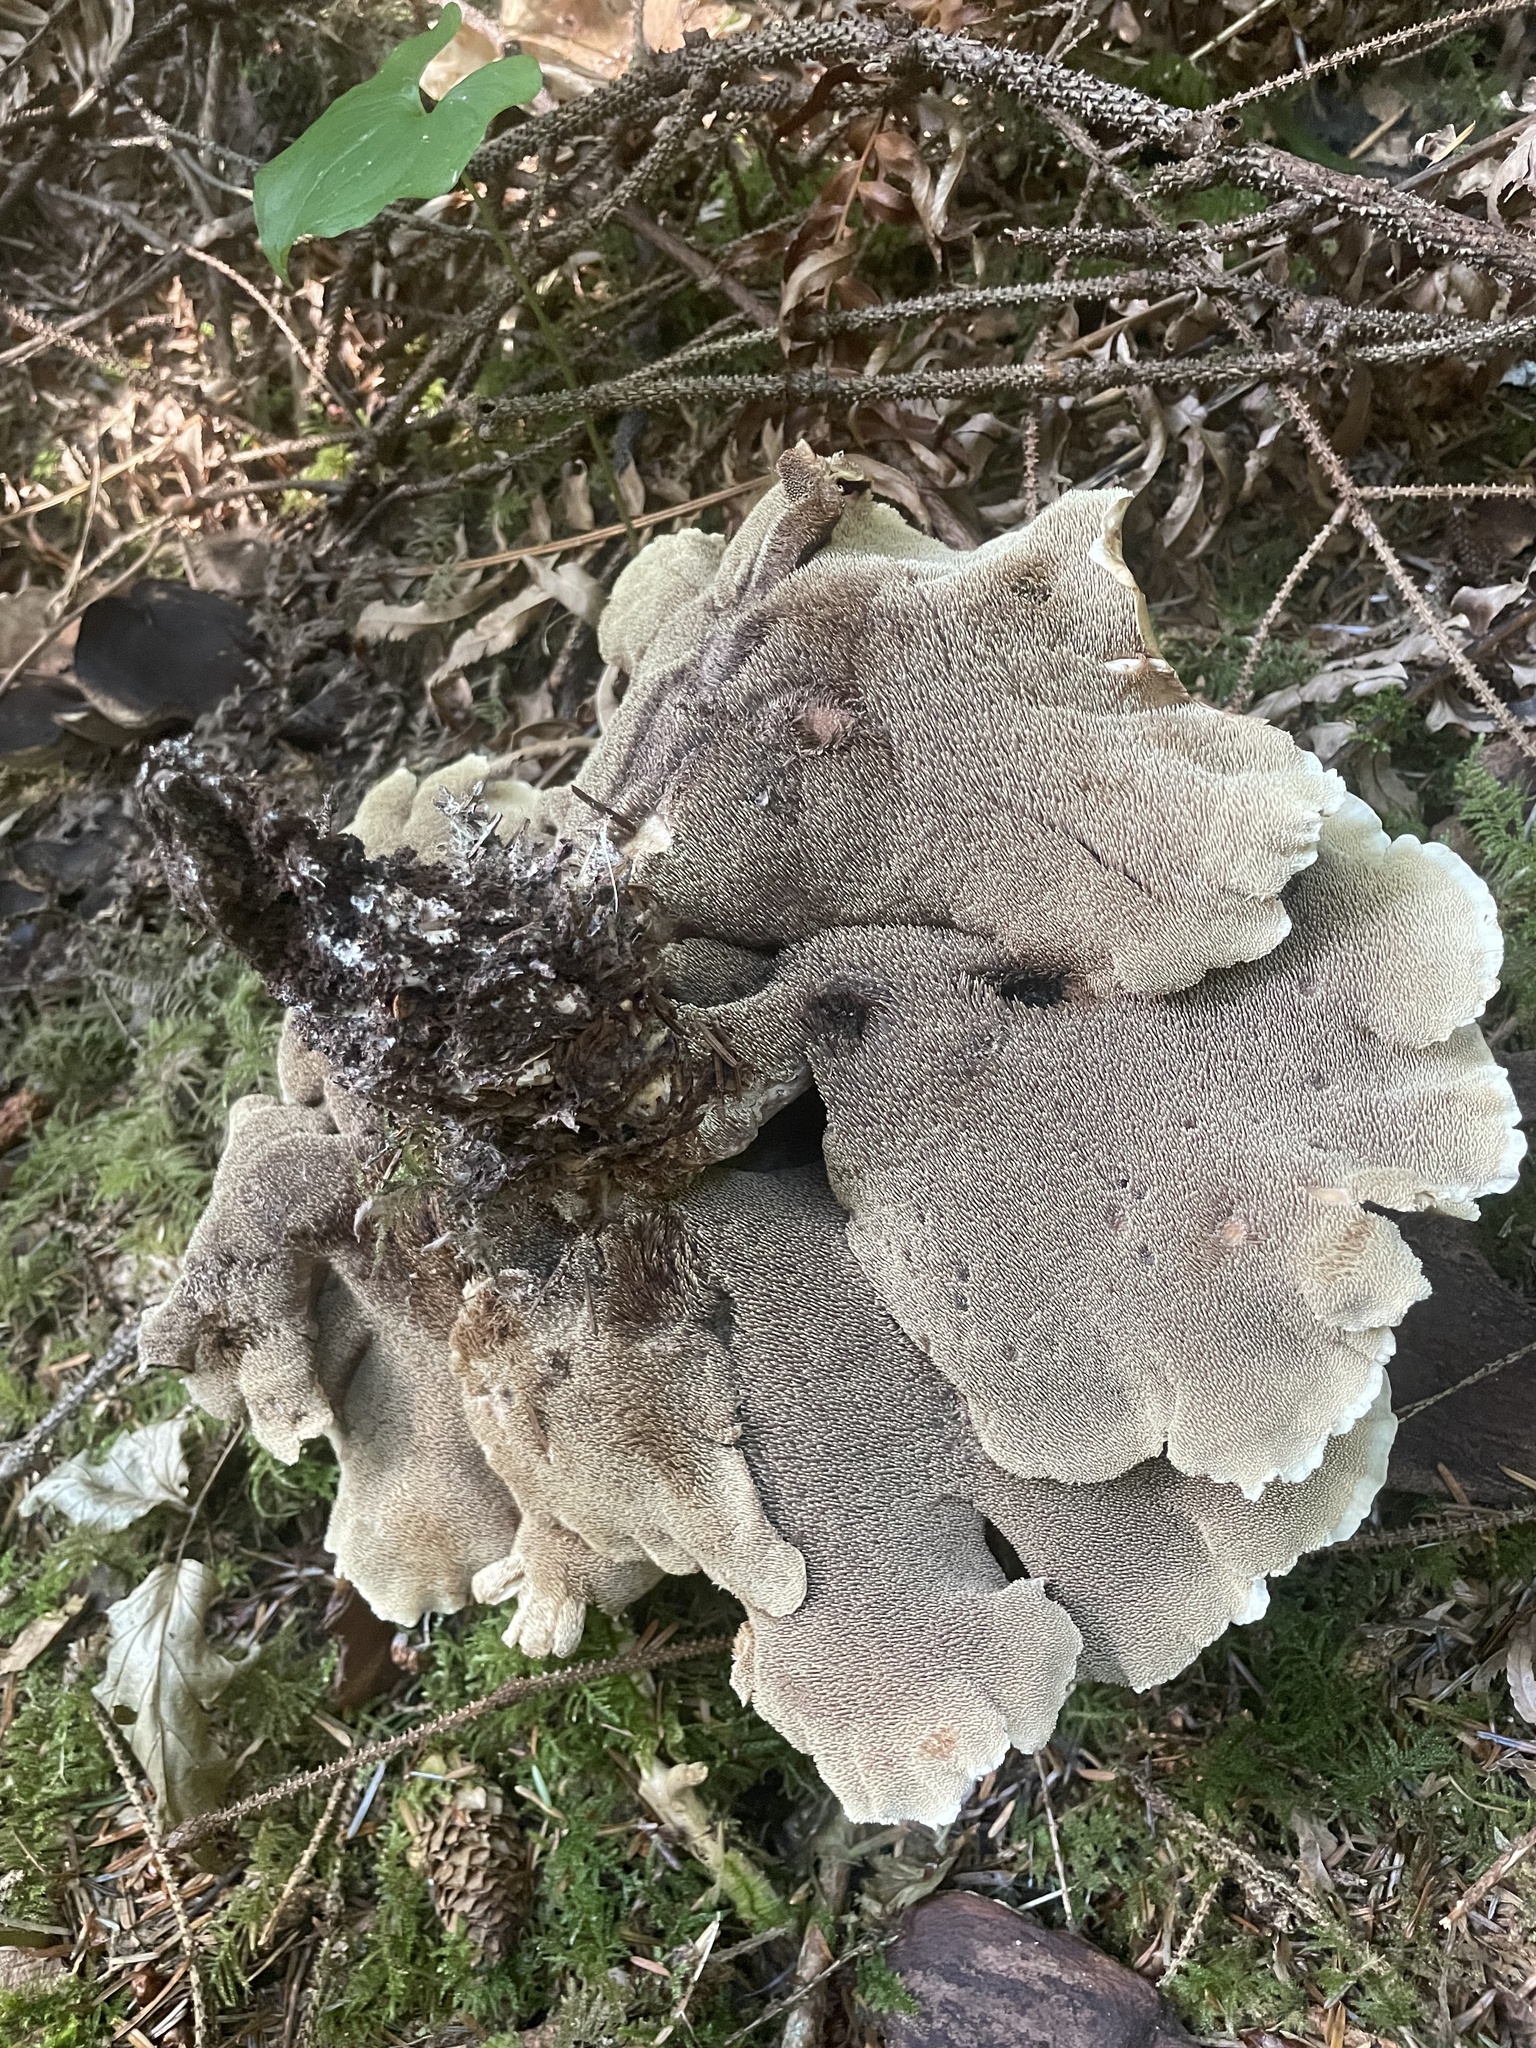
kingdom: Fungi
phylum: Basidiomycota
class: Agaricomycetes
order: Thelephorales
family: Bankeraceae
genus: Sarcodon
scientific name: Sarcodon stereosarcinon
